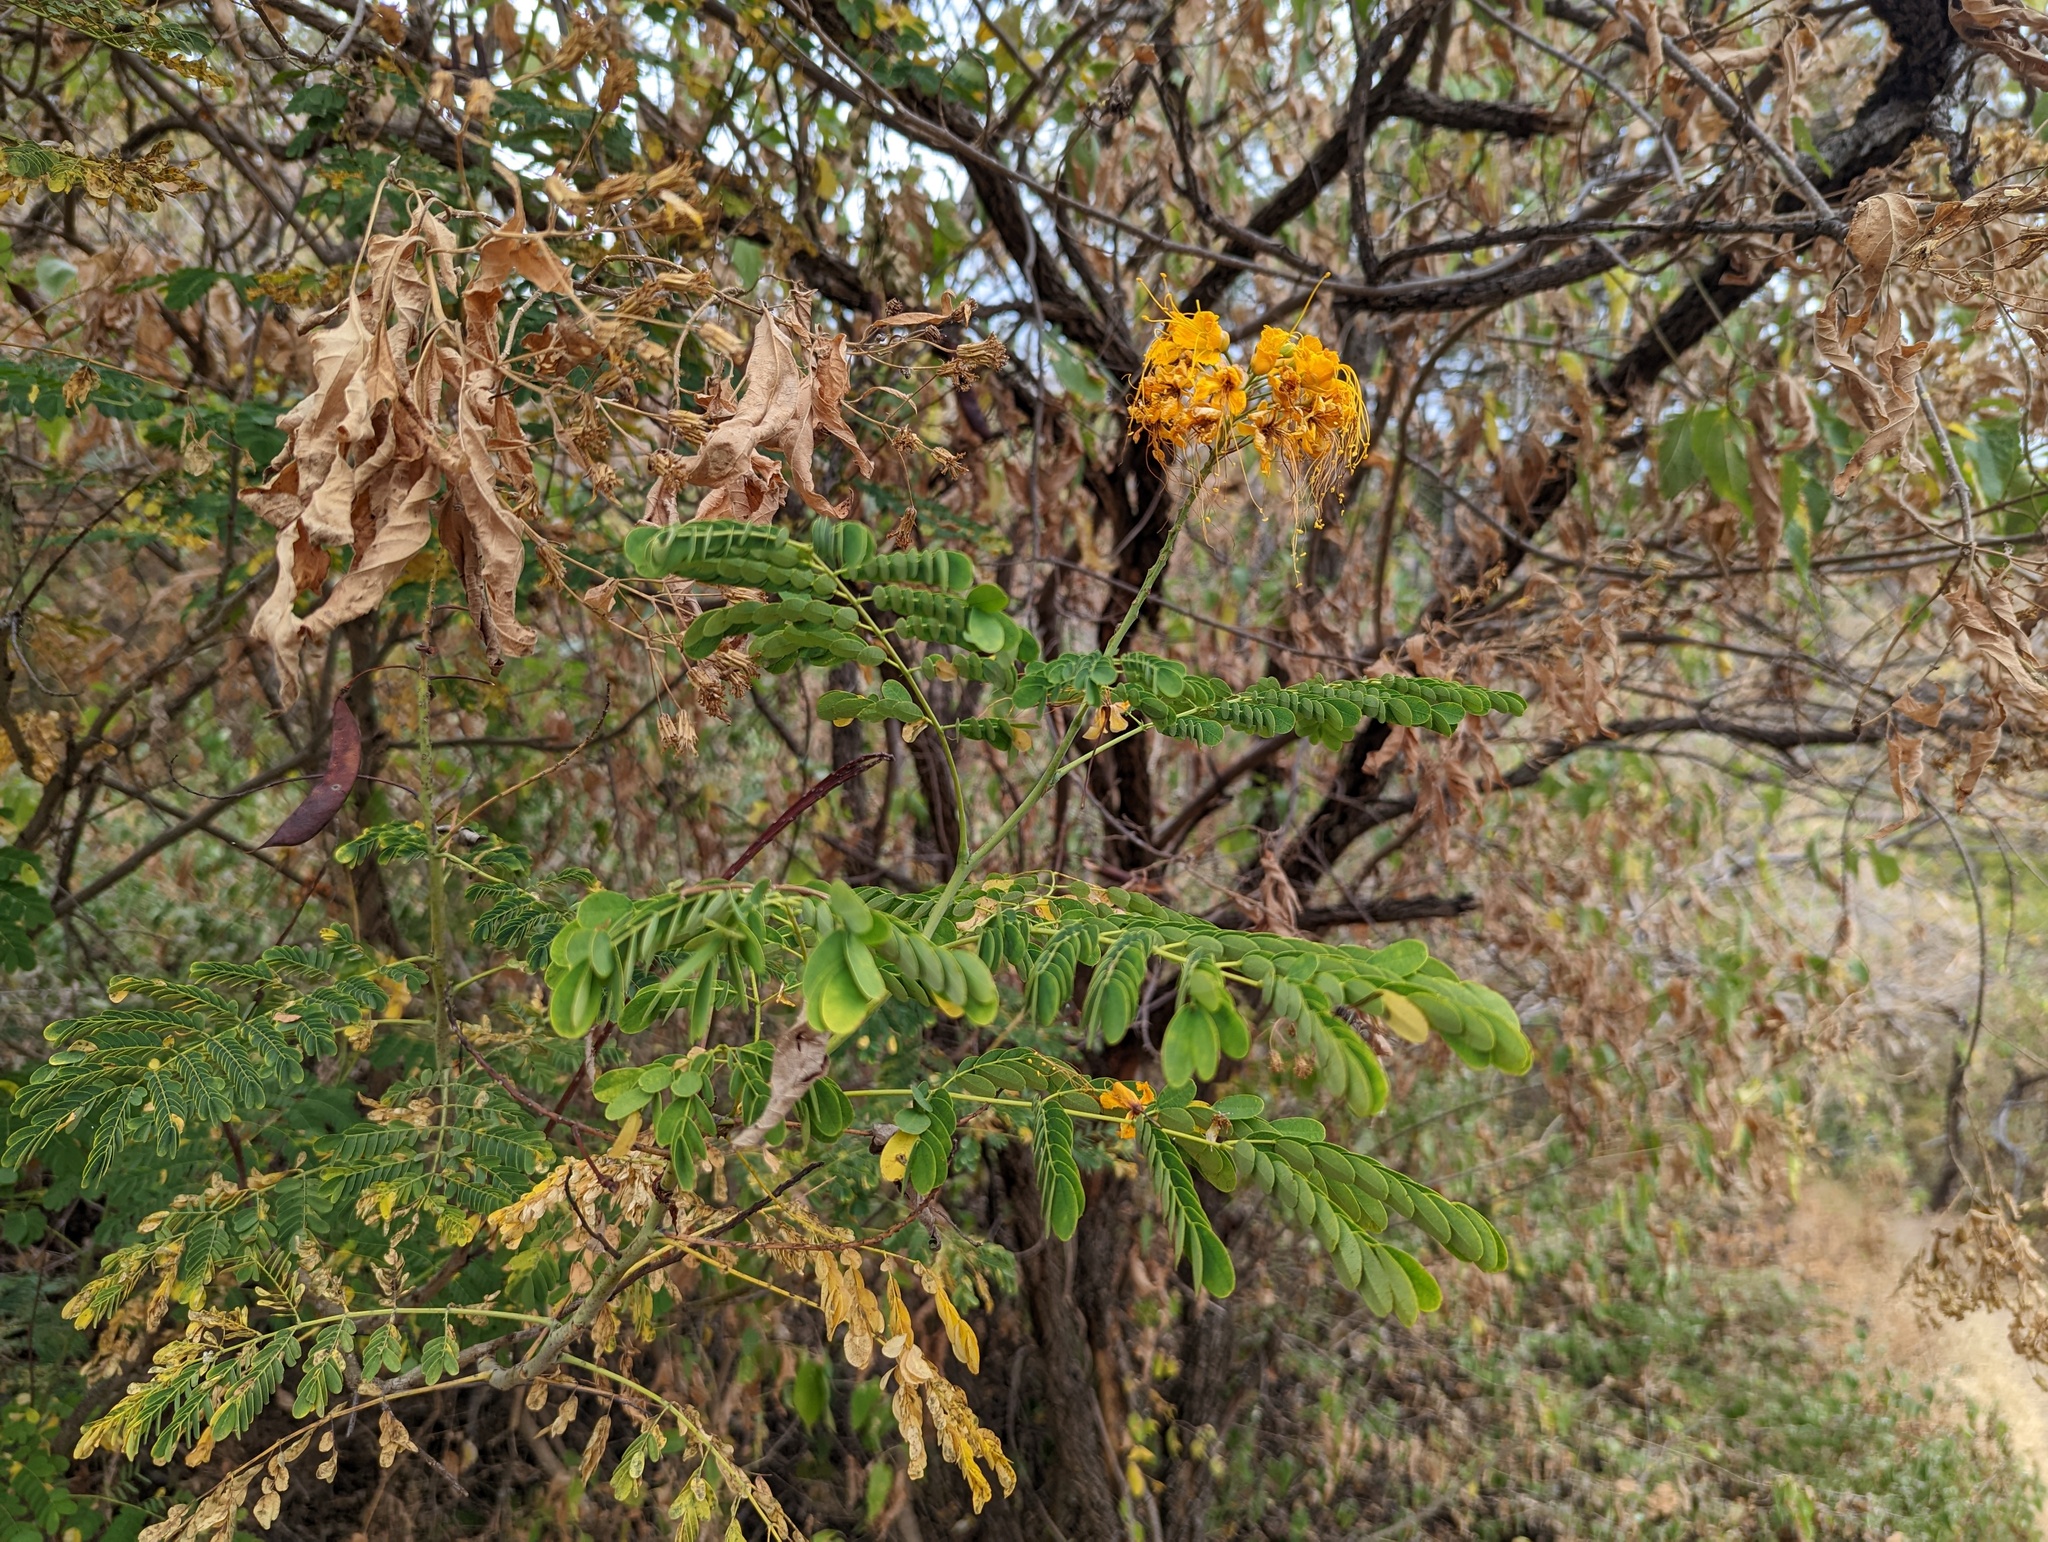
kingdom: Plantae
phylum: Tracheophyta
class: Magnoliopsida
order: Fabales
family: Fabaceae
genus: Caesalpinia
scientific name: Caesalpinia pulcherrima
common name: Pride-of-barbados
